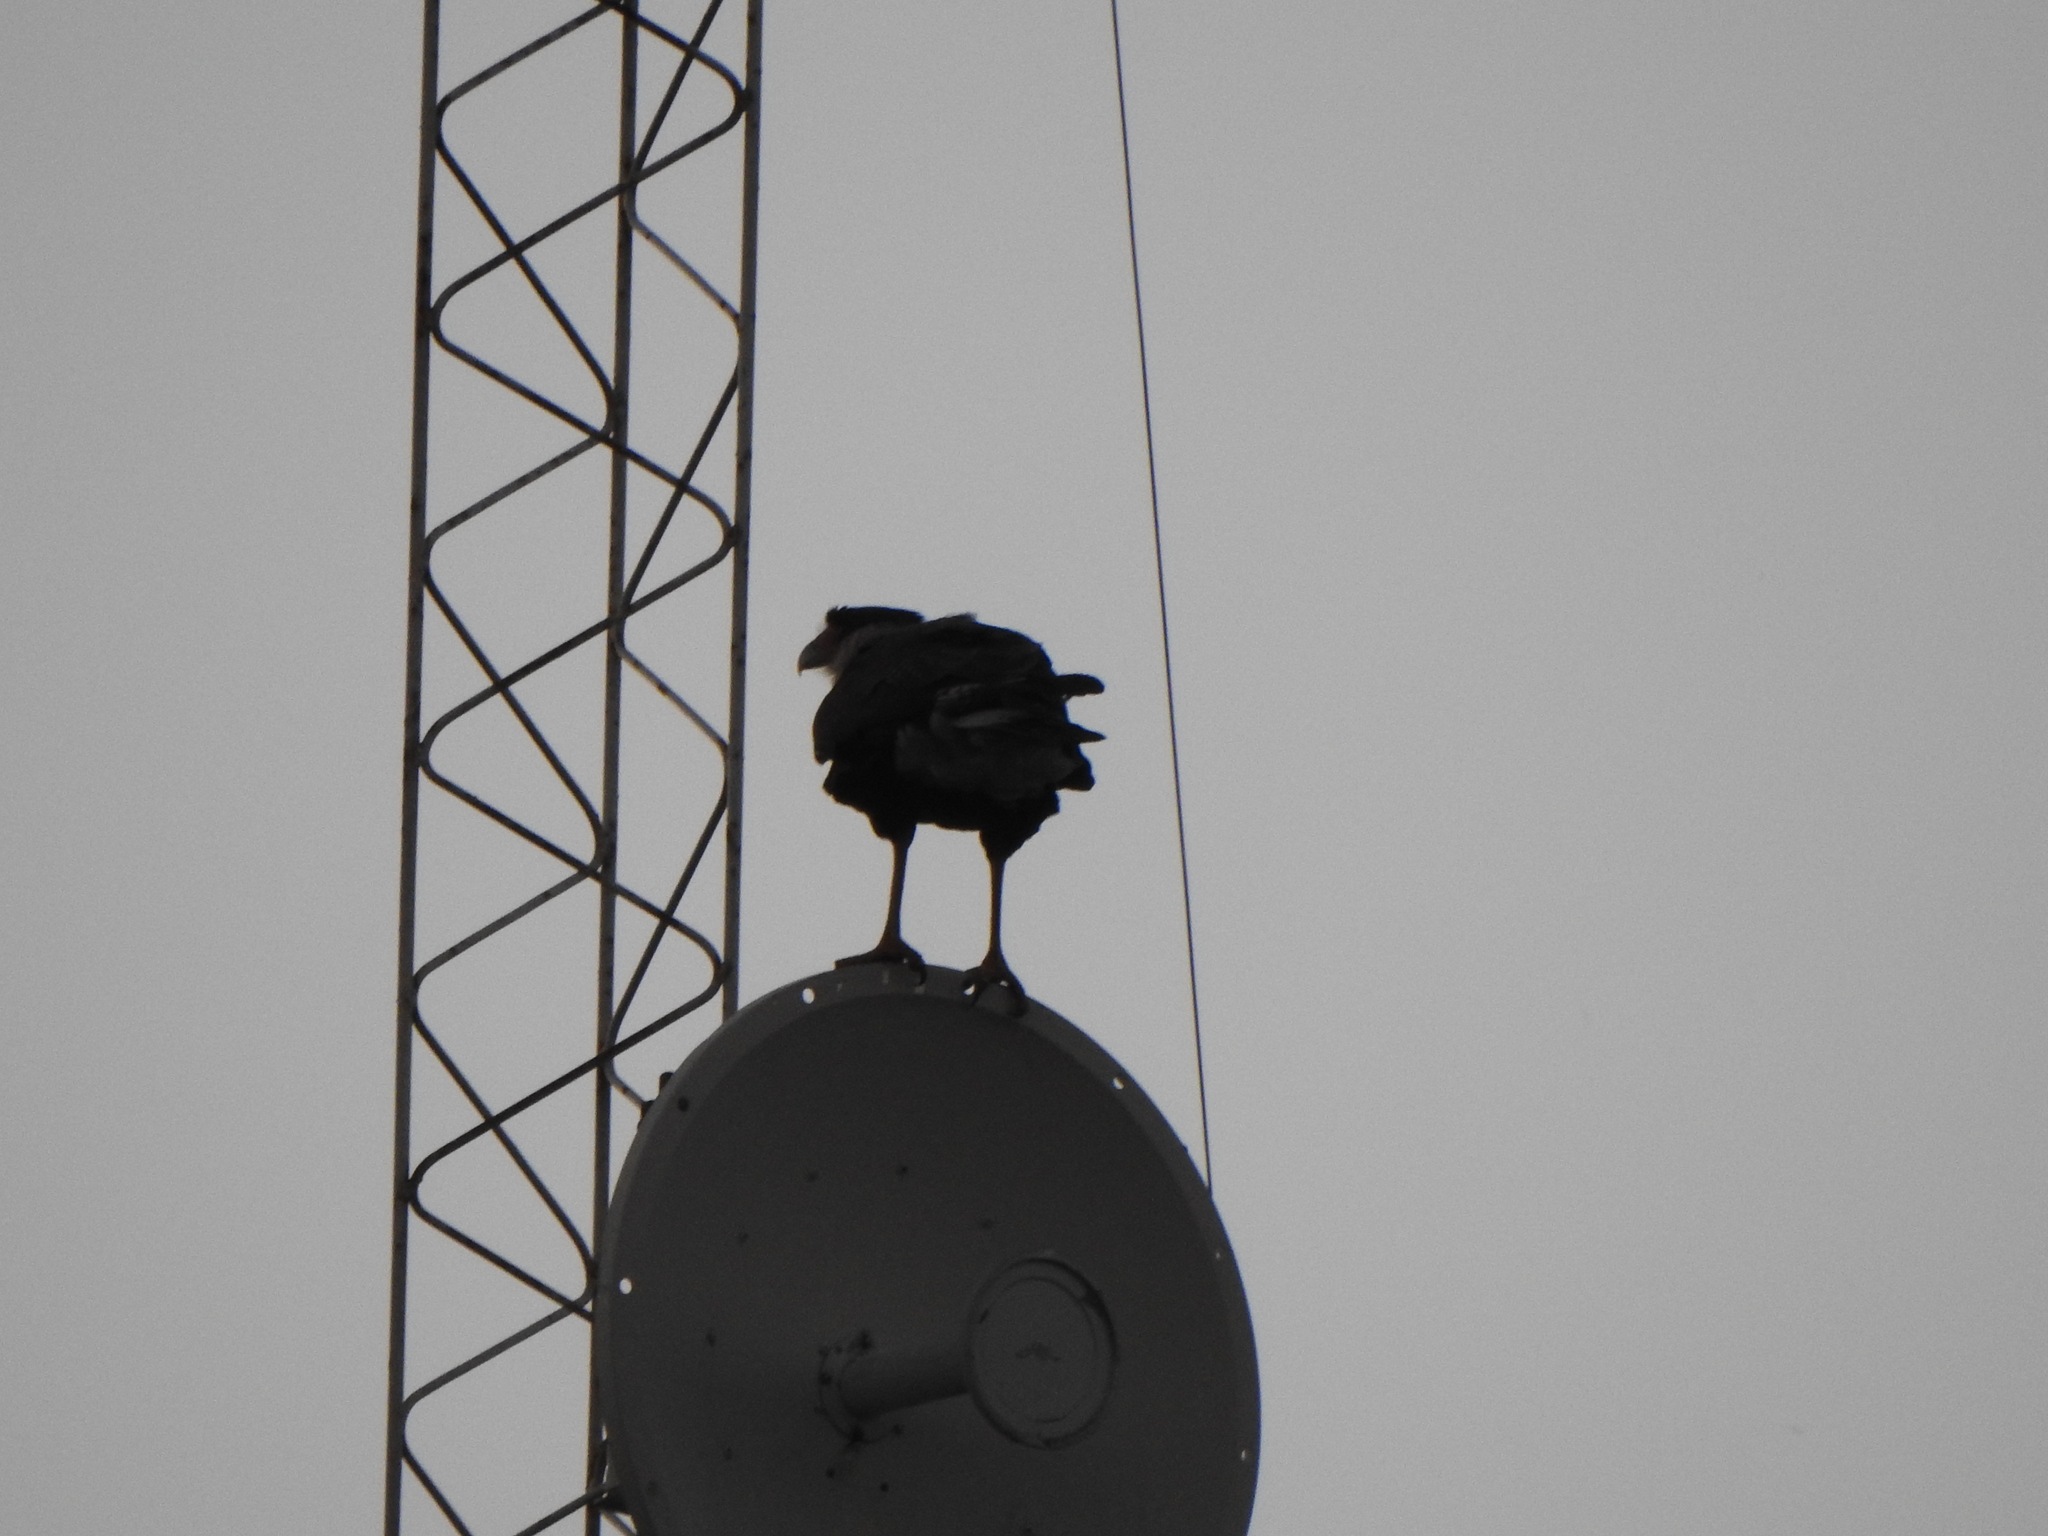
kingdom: Animalia
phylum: Chordata
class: Aves
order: Falconiformes
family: Falconidae
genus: Caracara
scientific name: Caracara plancus
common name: Southern caracara
